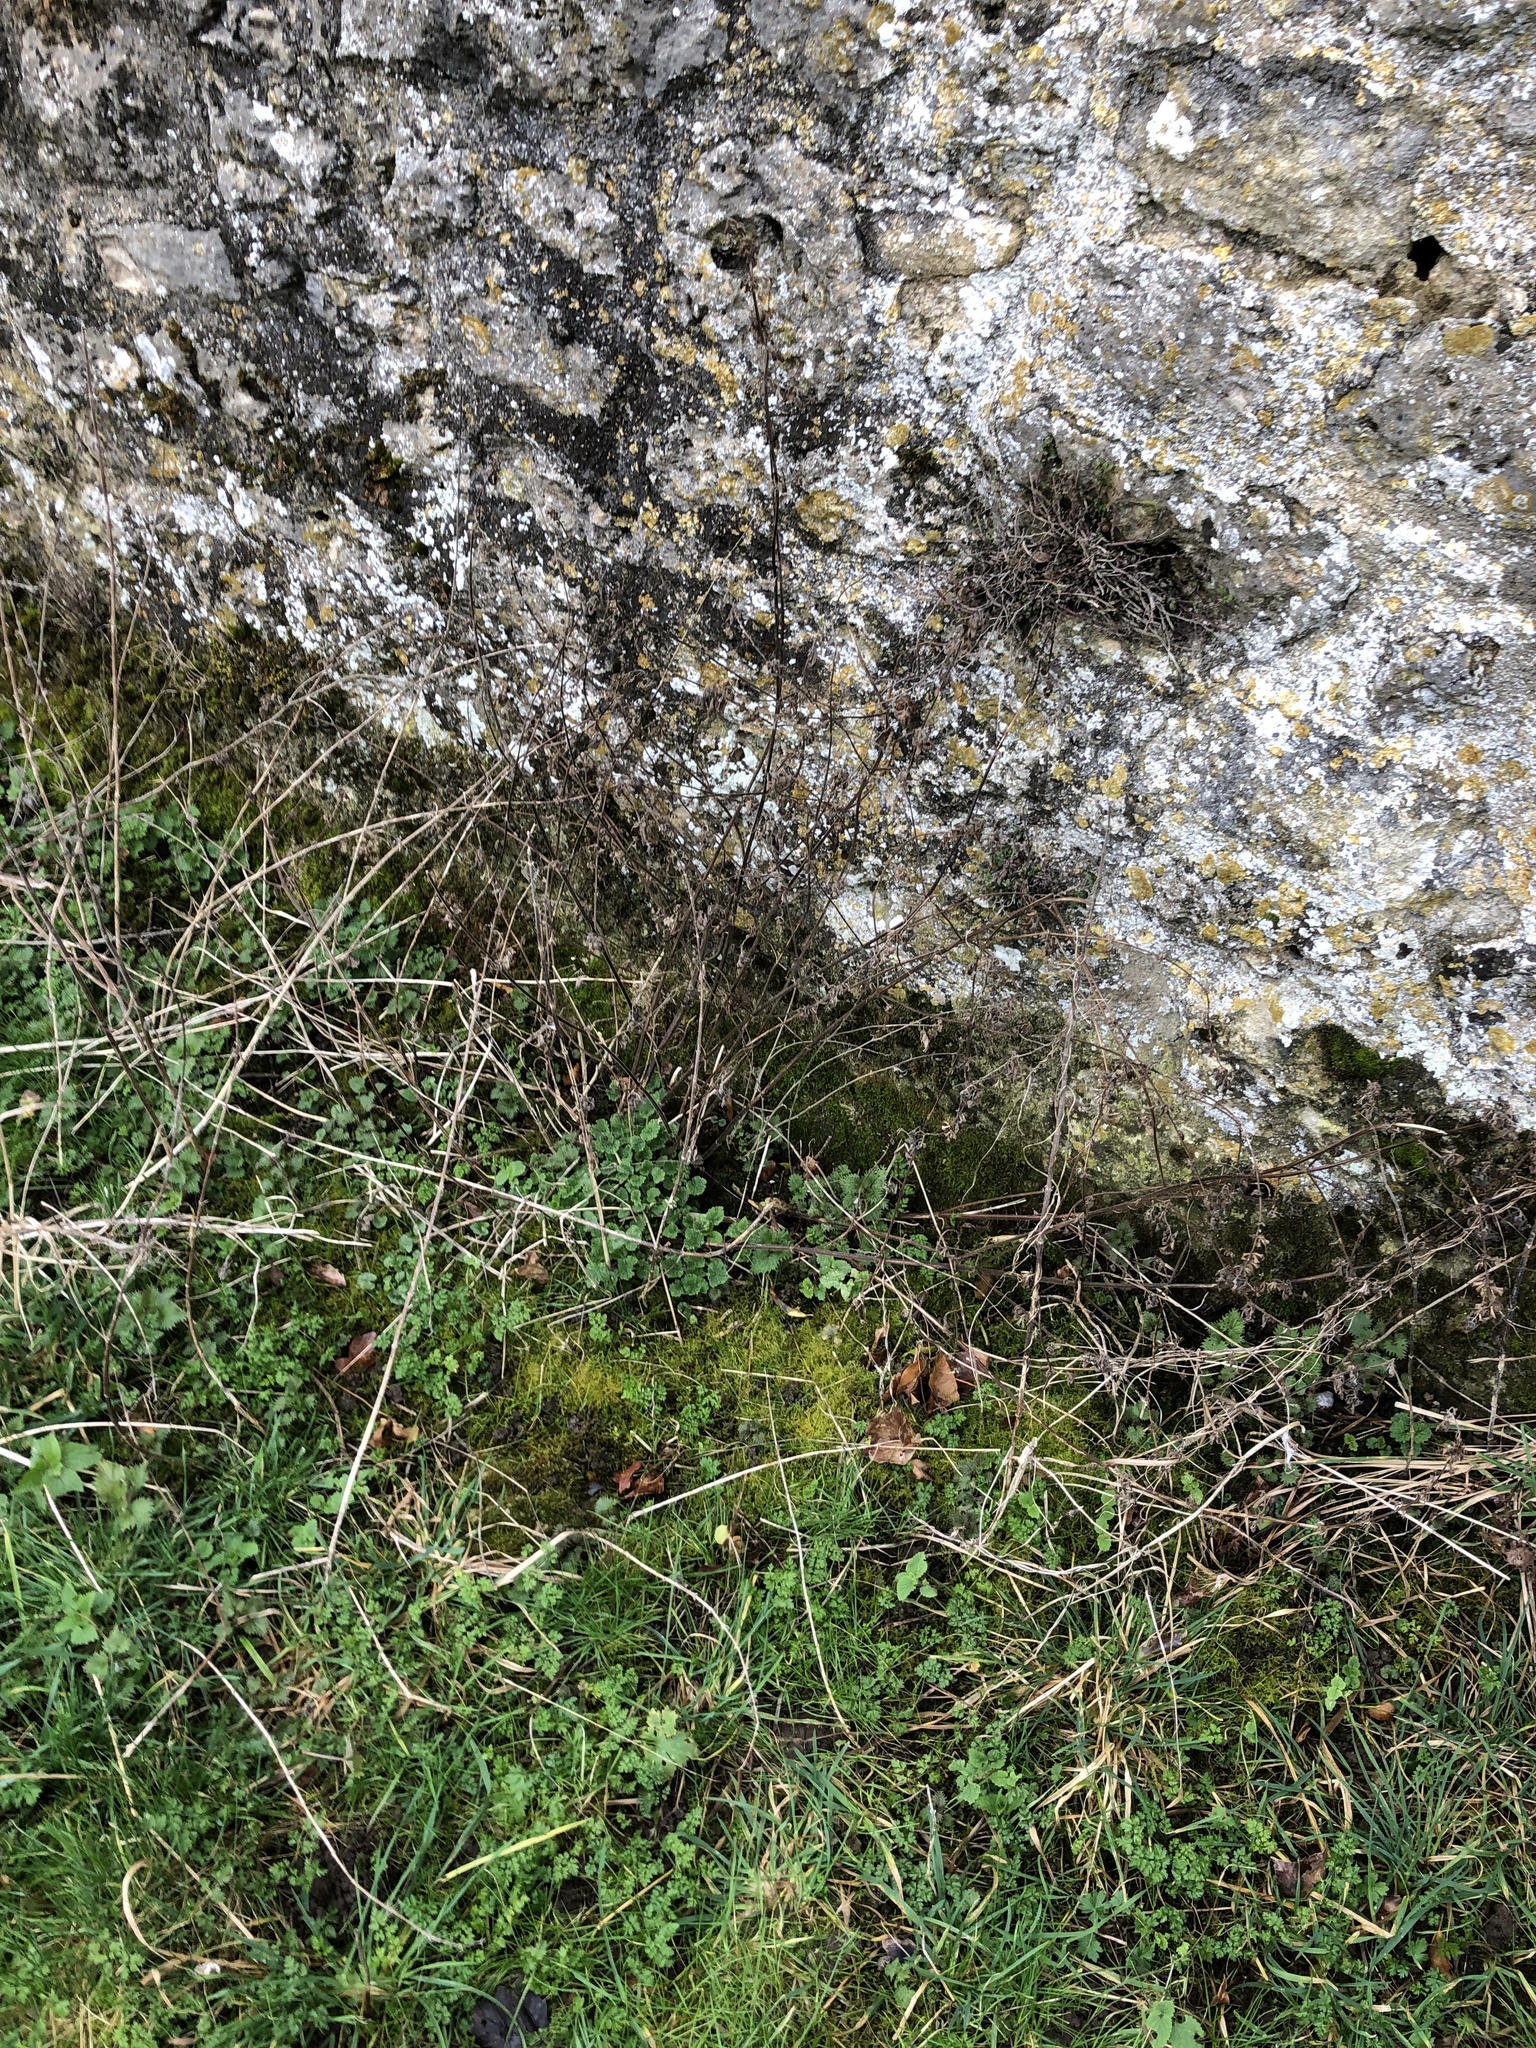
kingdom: Plantae
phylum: Bryophyta
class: Bryopsida
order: Hypnales
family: Brachytheciaceae
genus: Kindbergia
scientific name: Kindbergia praelonga
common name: Slender beaked moss
